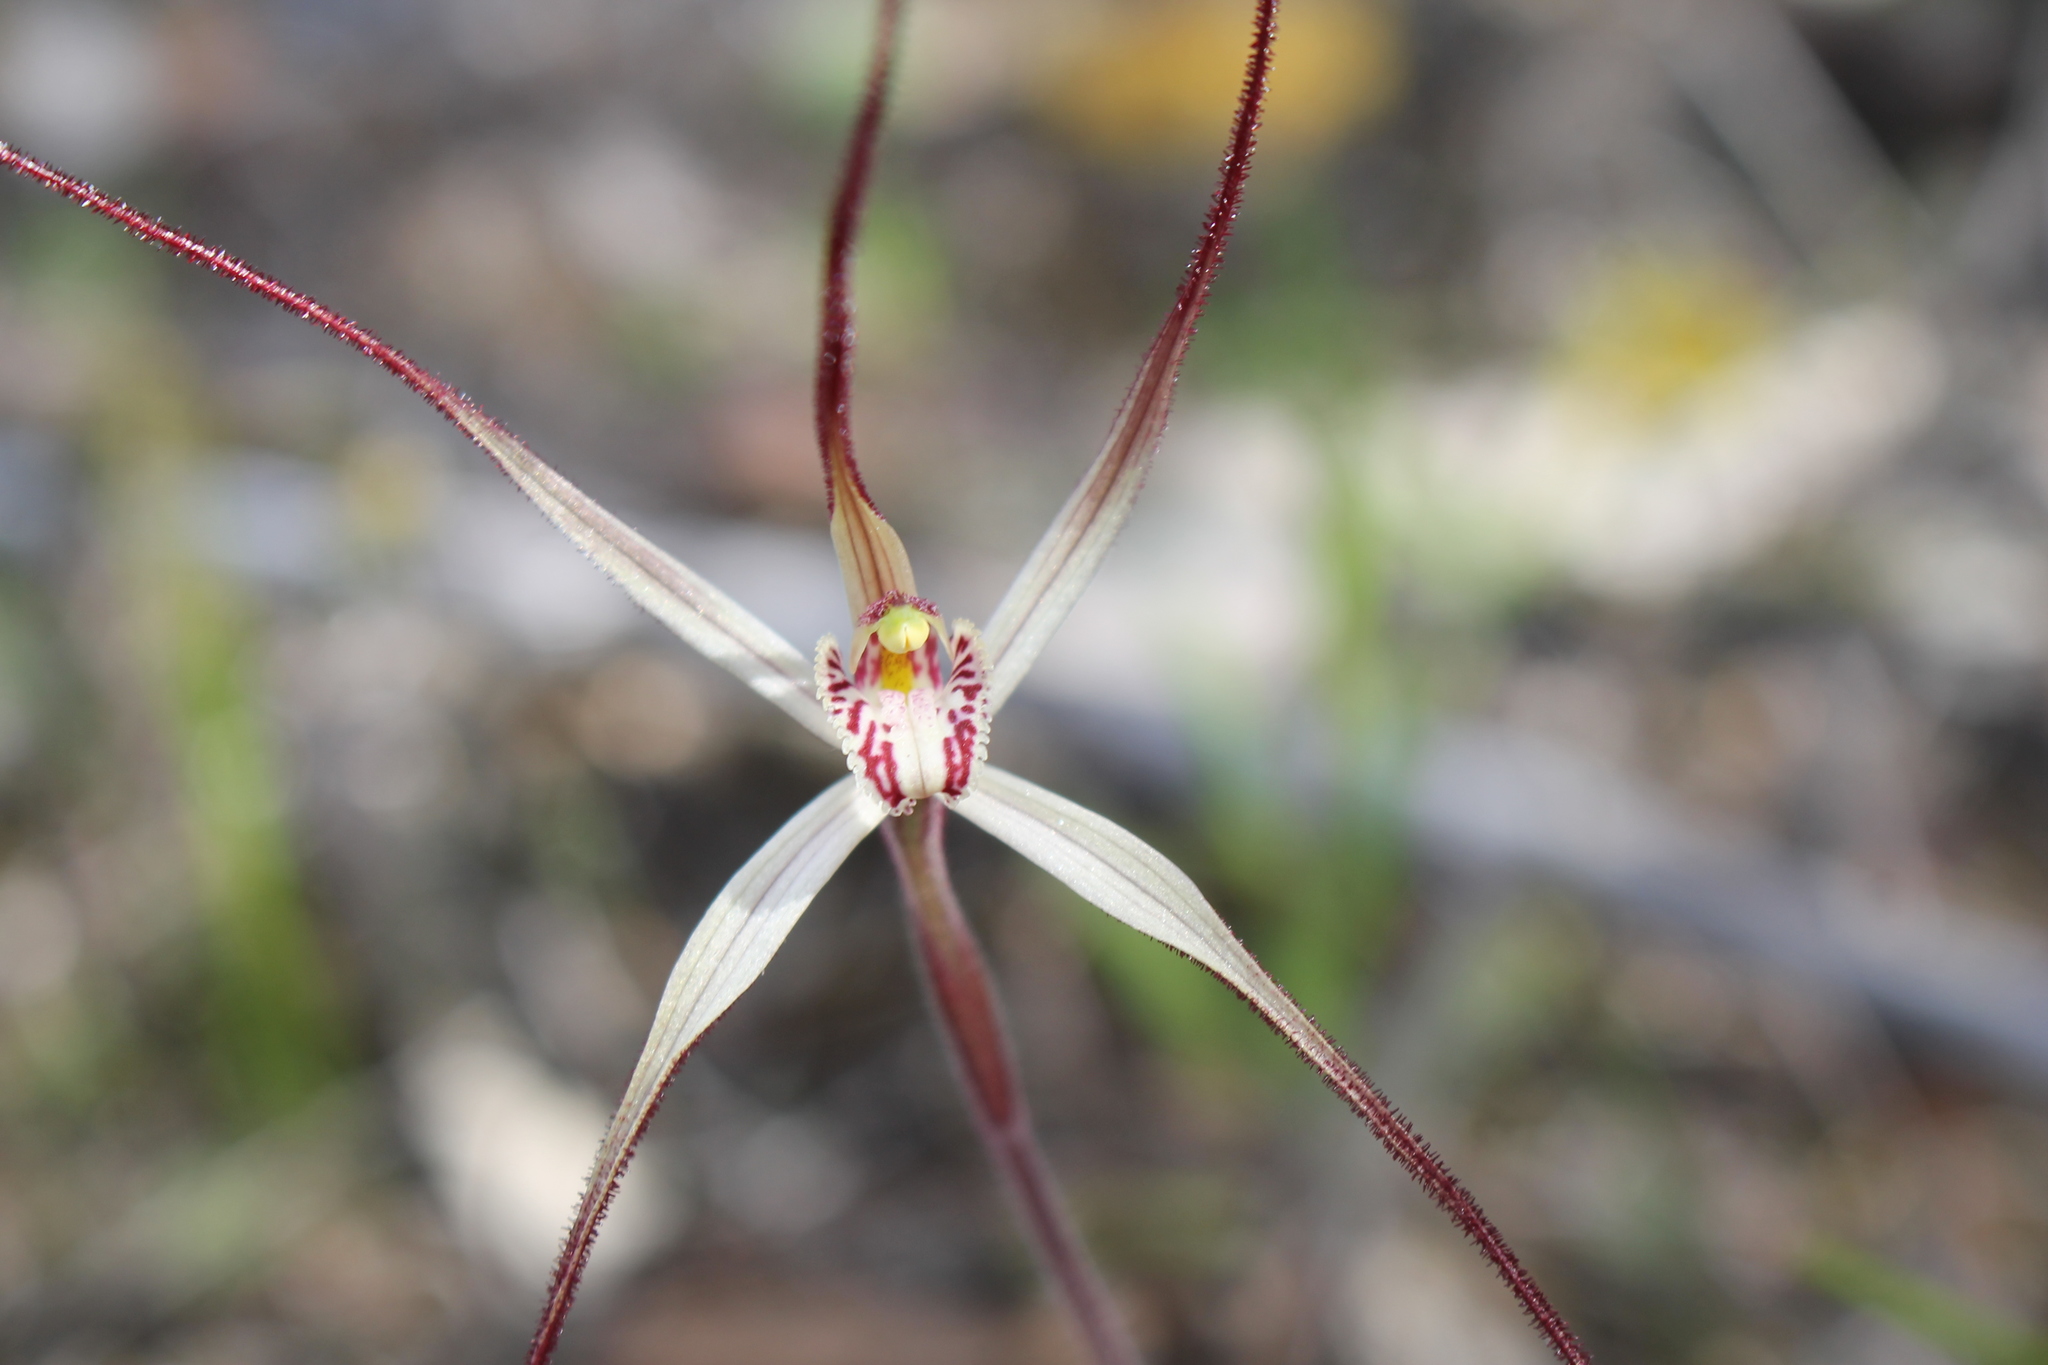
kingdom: Plantae
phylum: Tracheophyta
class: Liliopsida
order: Asparagales
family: Orchidaceae
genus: Caladenia
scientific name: Caladenia polychroma
